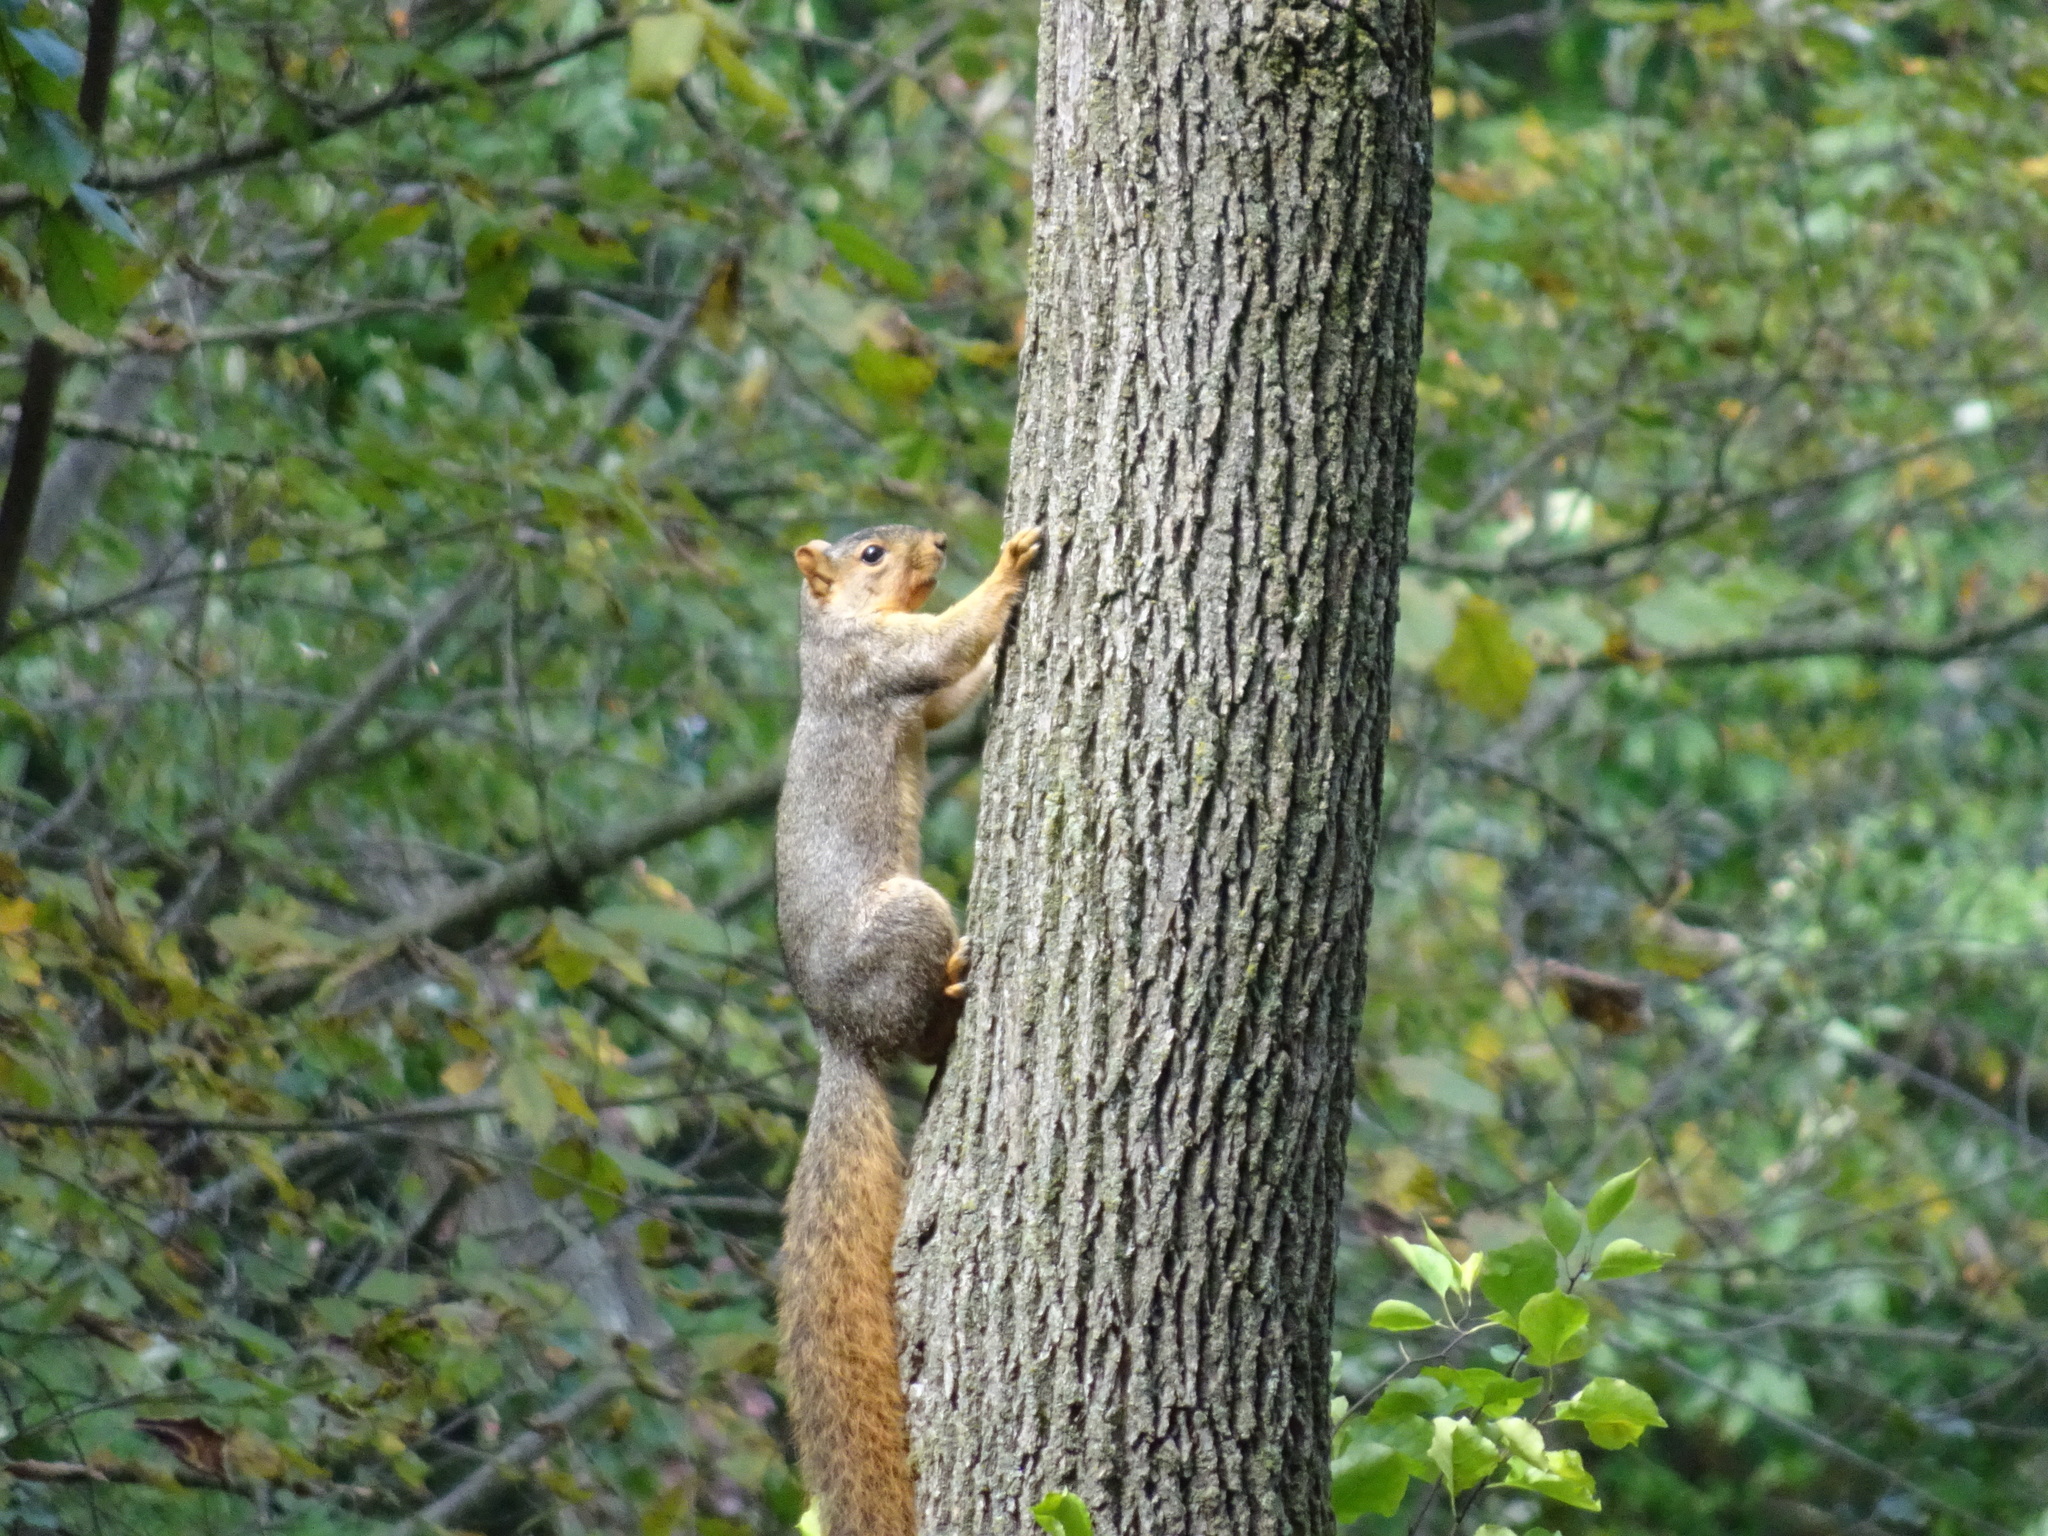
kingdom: Animalia
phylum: Chordata
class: Mammalia
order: Rodentia
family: Sciuridae
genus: Sciurus
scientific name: Sciurus niger
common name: Fox squirrel
